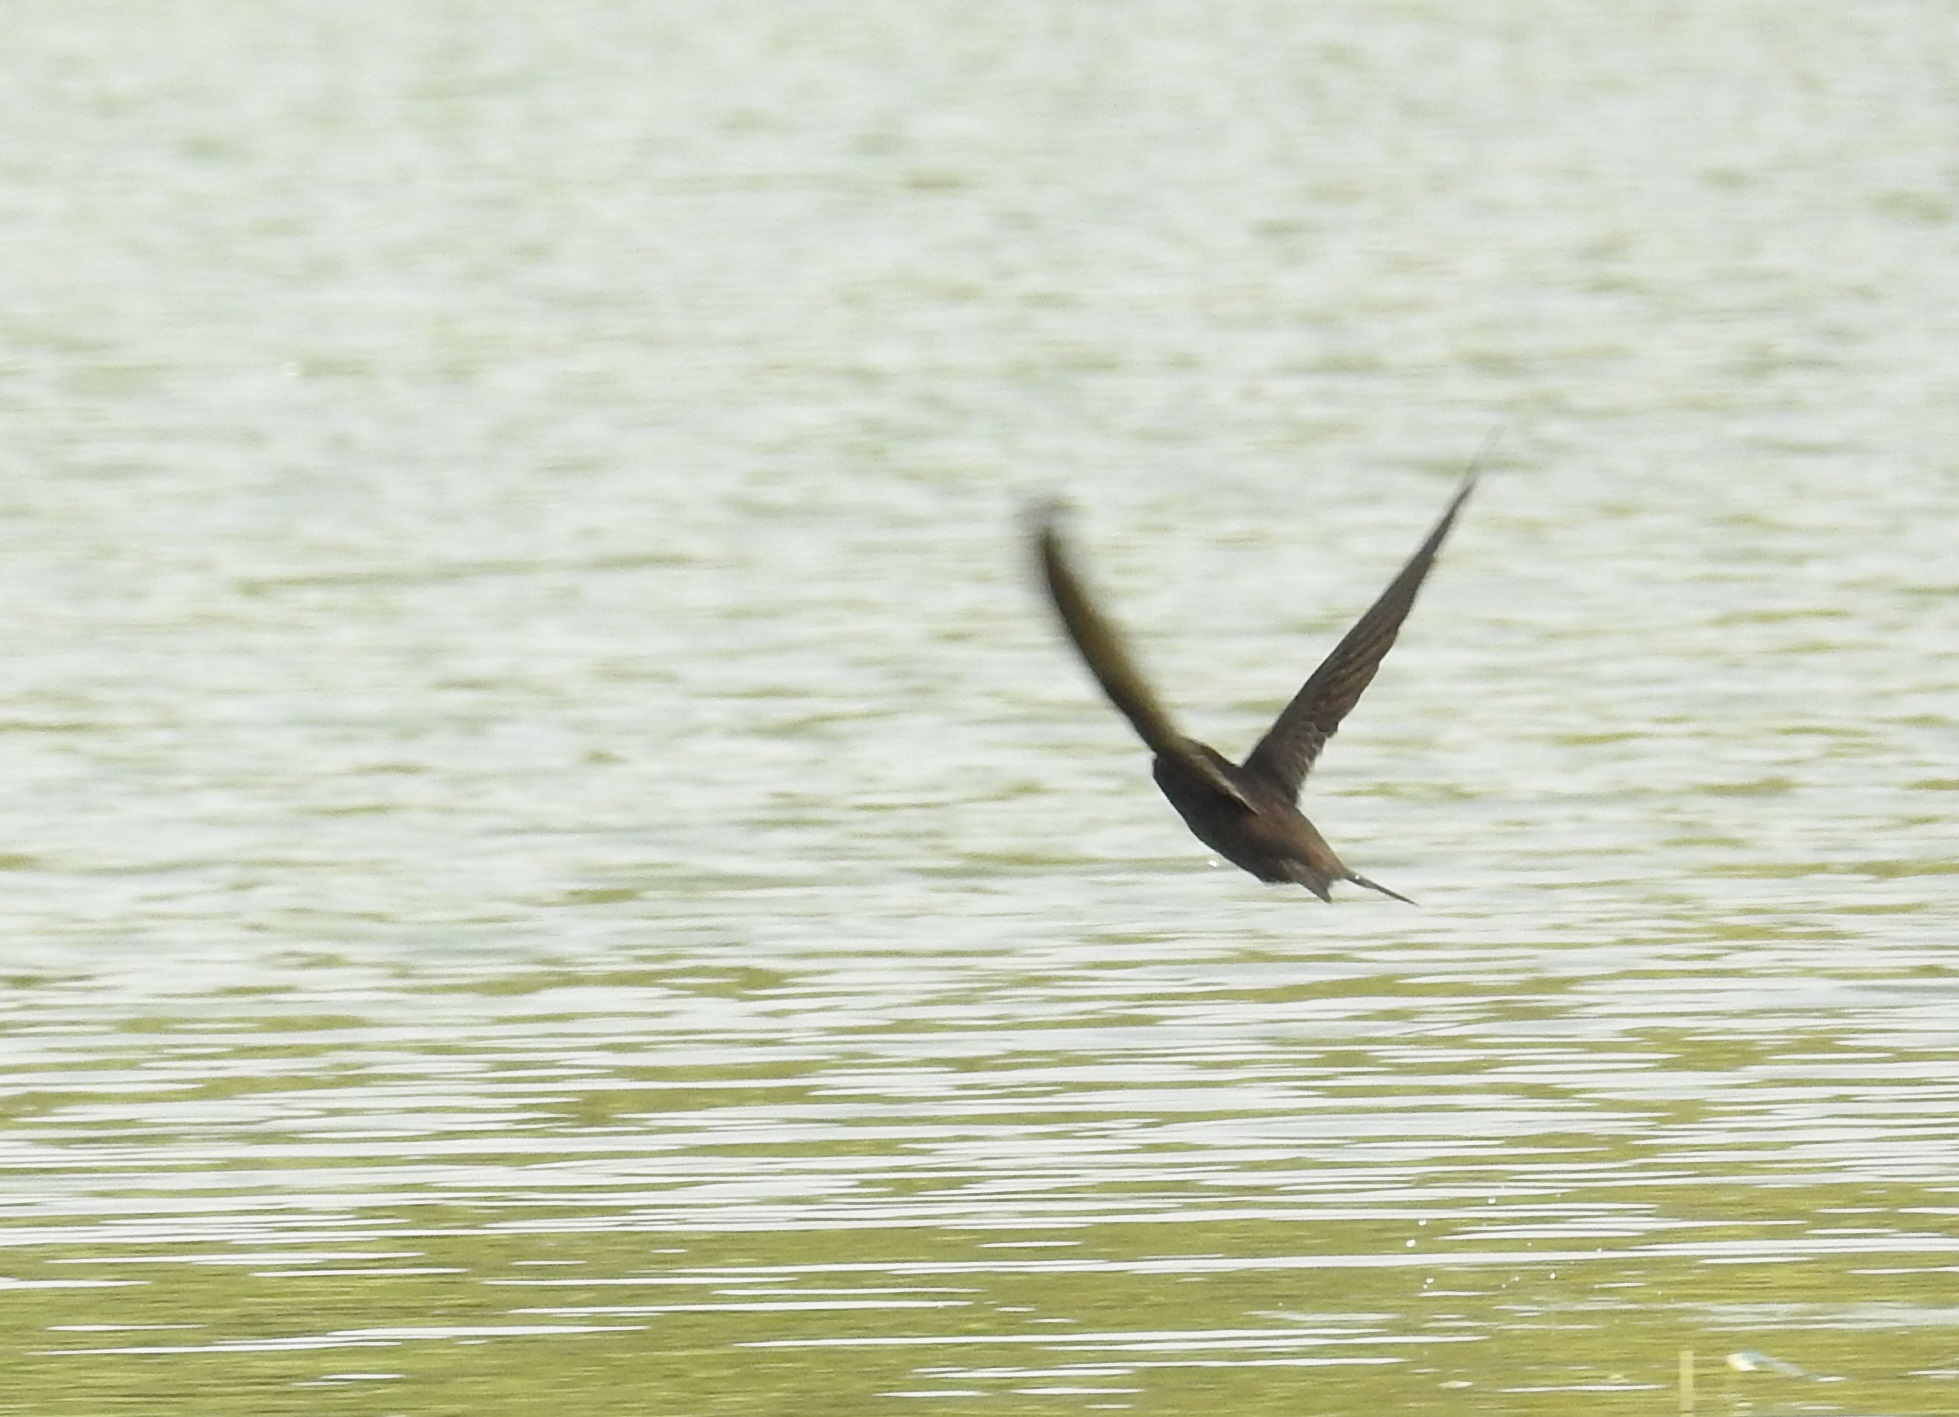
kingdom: Animalia
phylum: Chordata
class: Aves
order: Apodiformes
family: Apodidae
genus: Apus
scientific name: Apus apus
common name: Common swift
